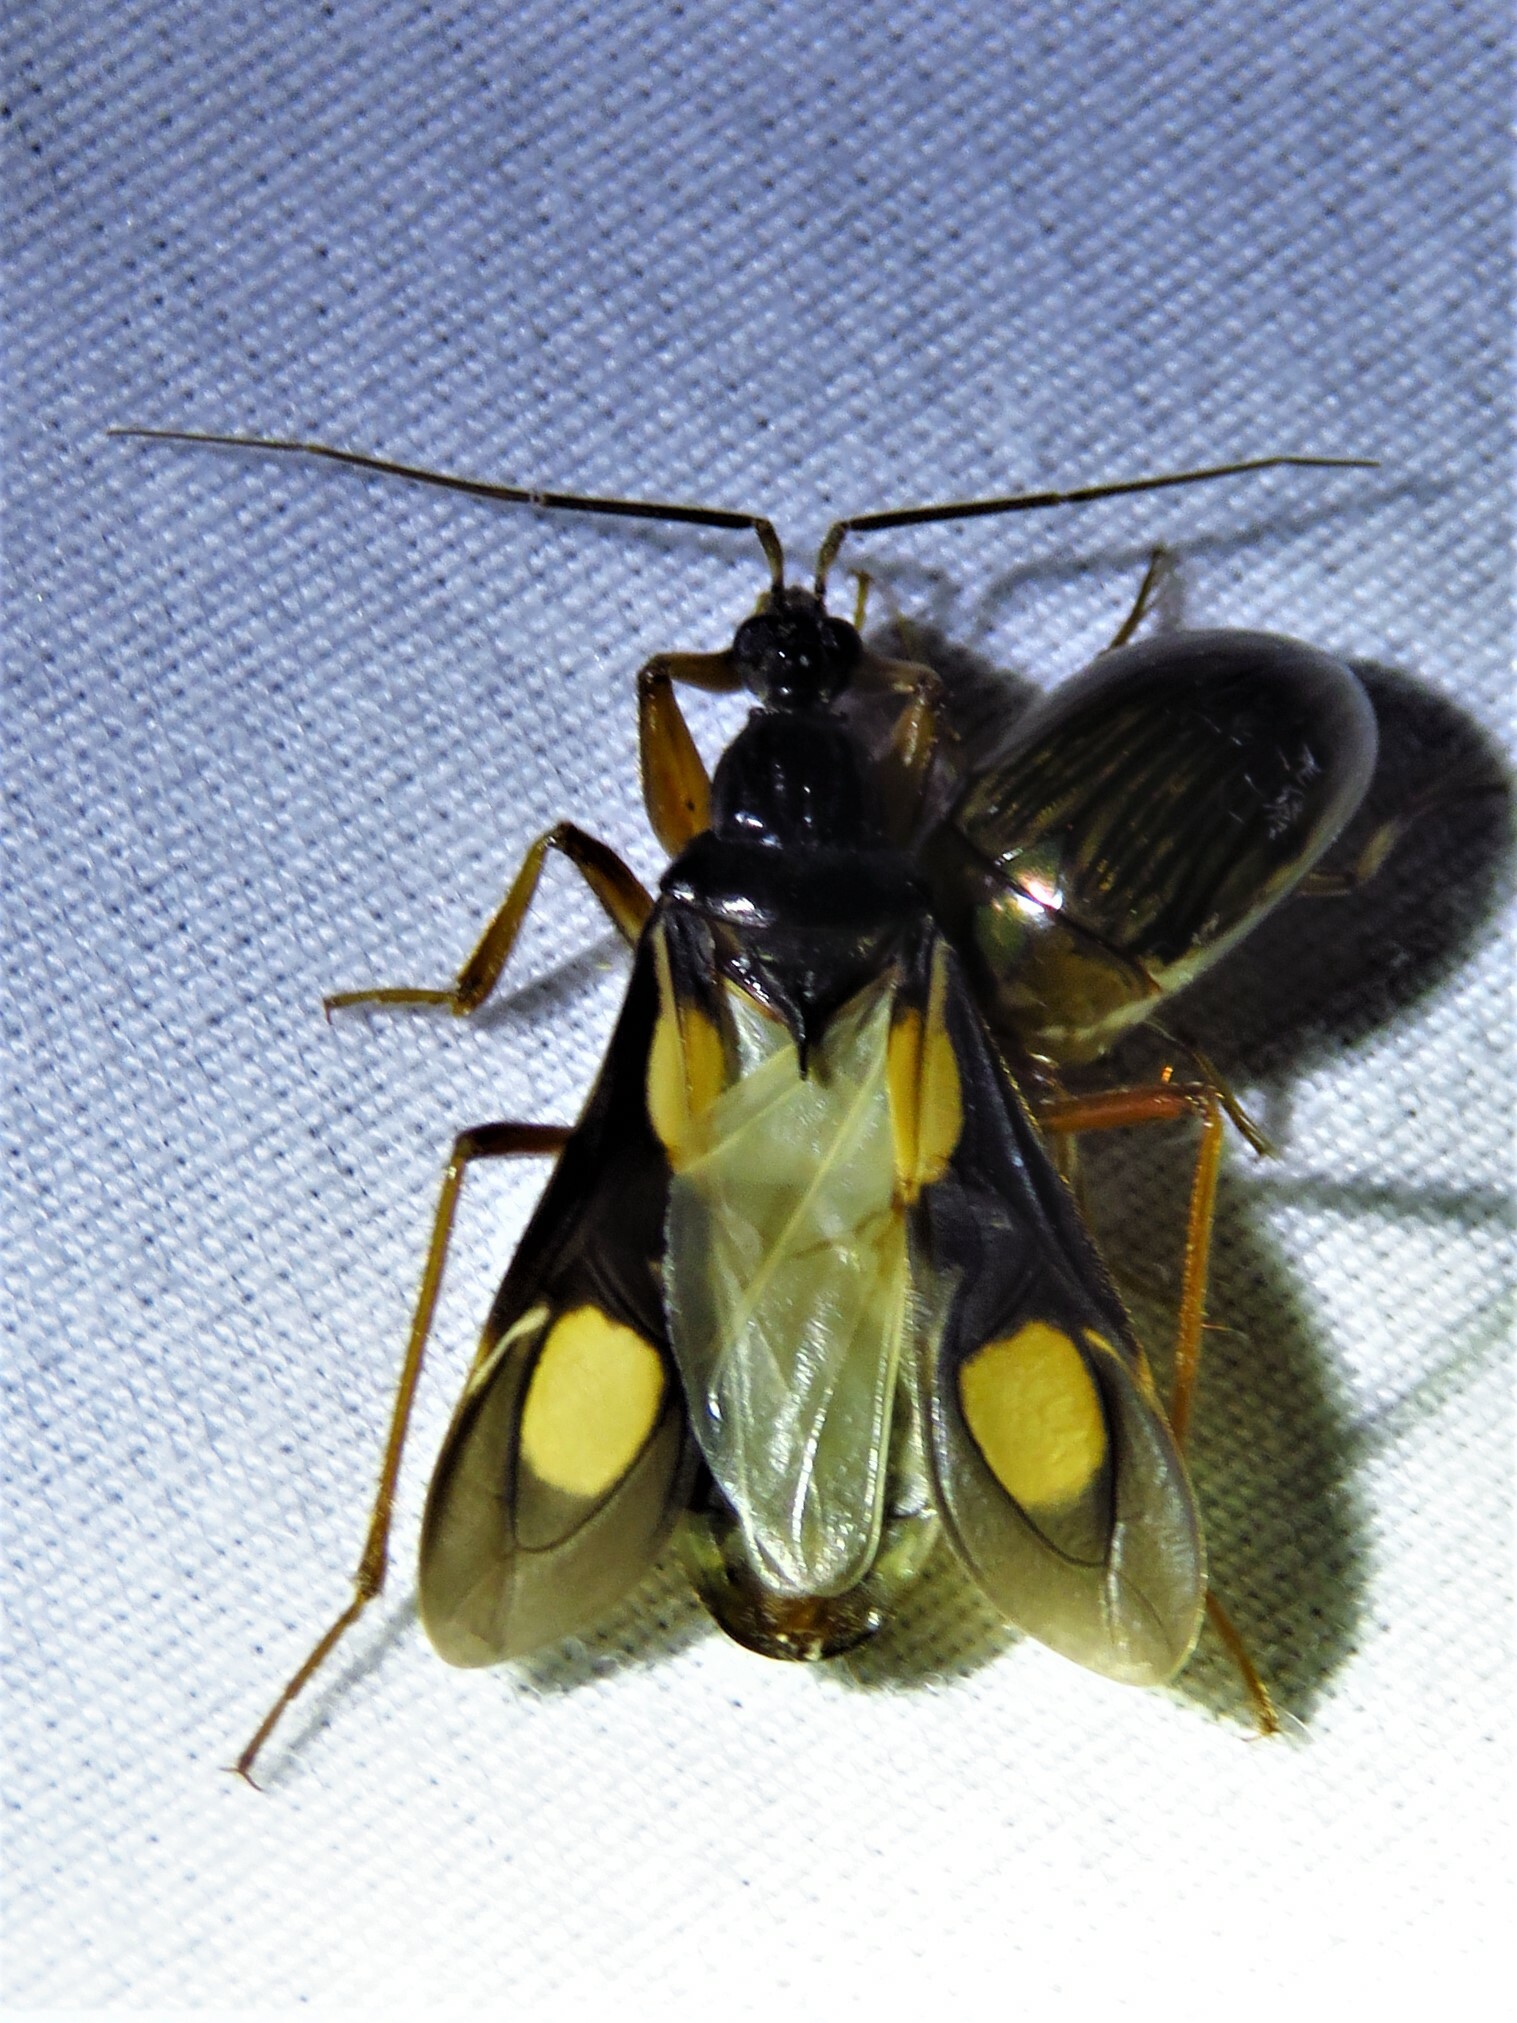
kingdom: Animalia
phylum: Arthropoda
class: Insecta
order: Hemiptera
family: Reduviidae
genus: Rasahus
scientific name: Rasahus hamatus
